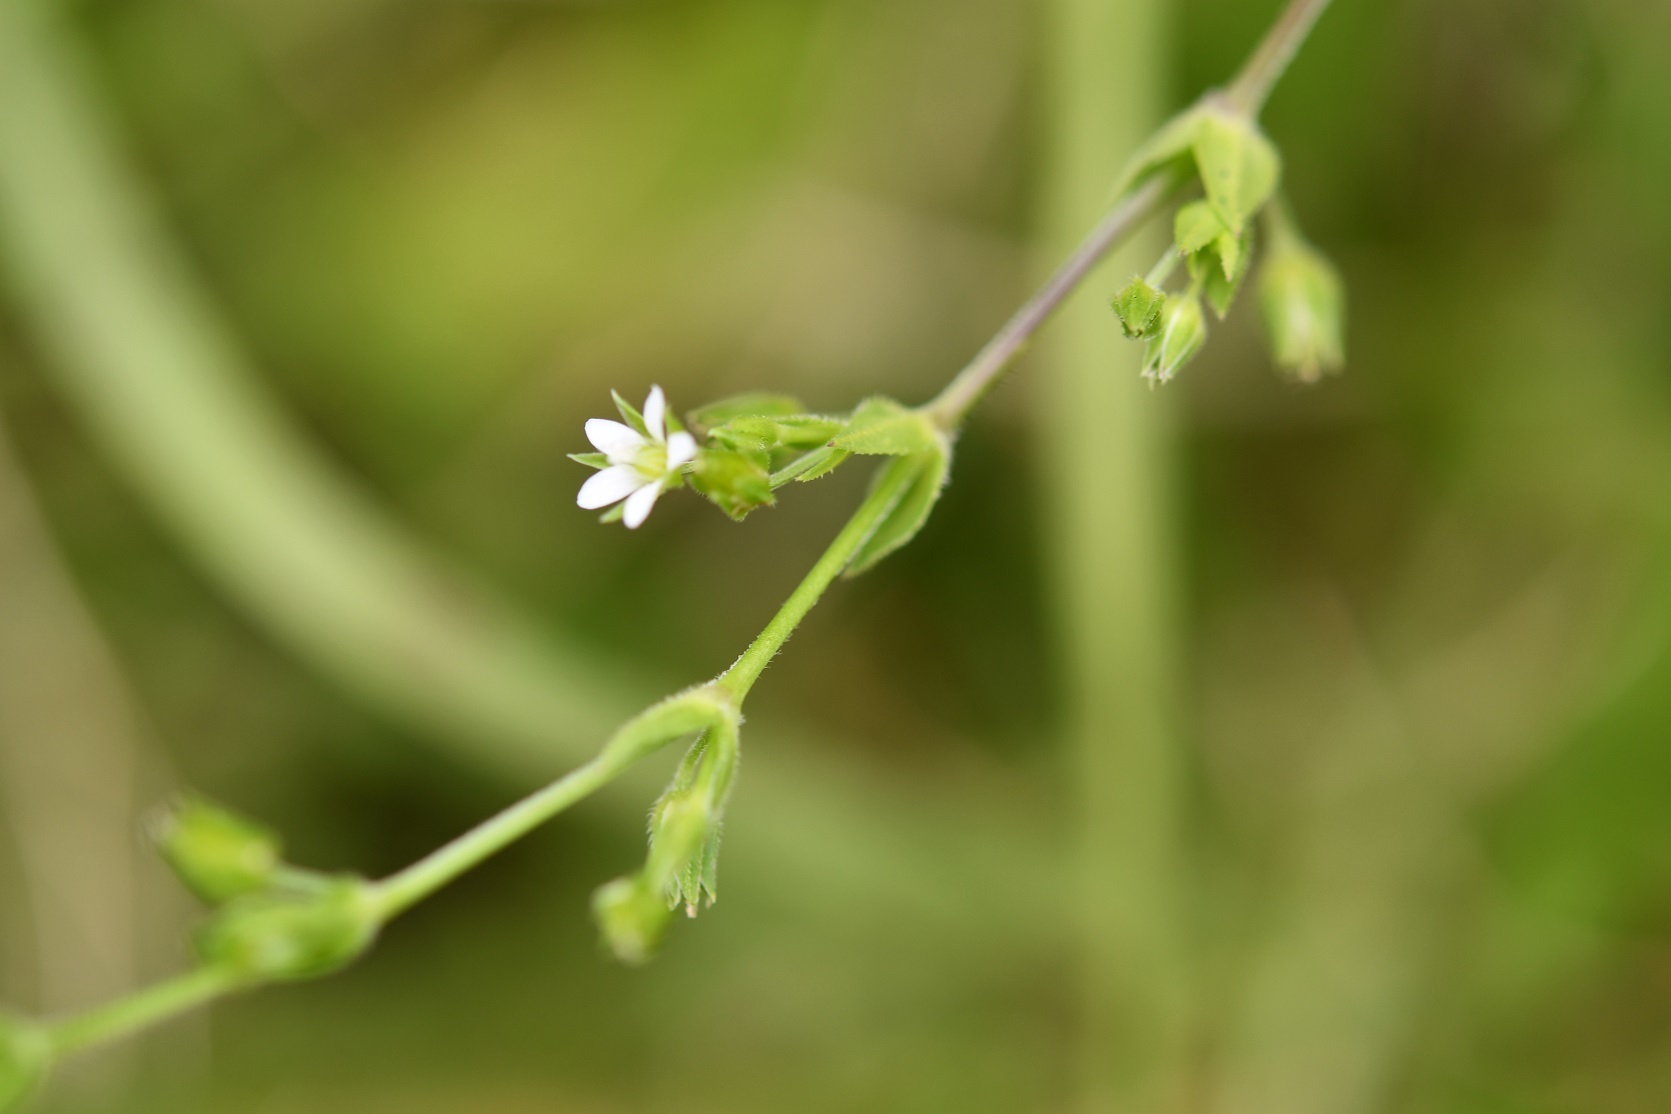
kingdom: Plantae
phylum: Tracheophyta
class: Magnoliopsida
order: Caryophyllales
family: Caryophyllaceae
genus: Arenaria
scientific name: Arenaria lanuginosa
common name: Spread sandwort
